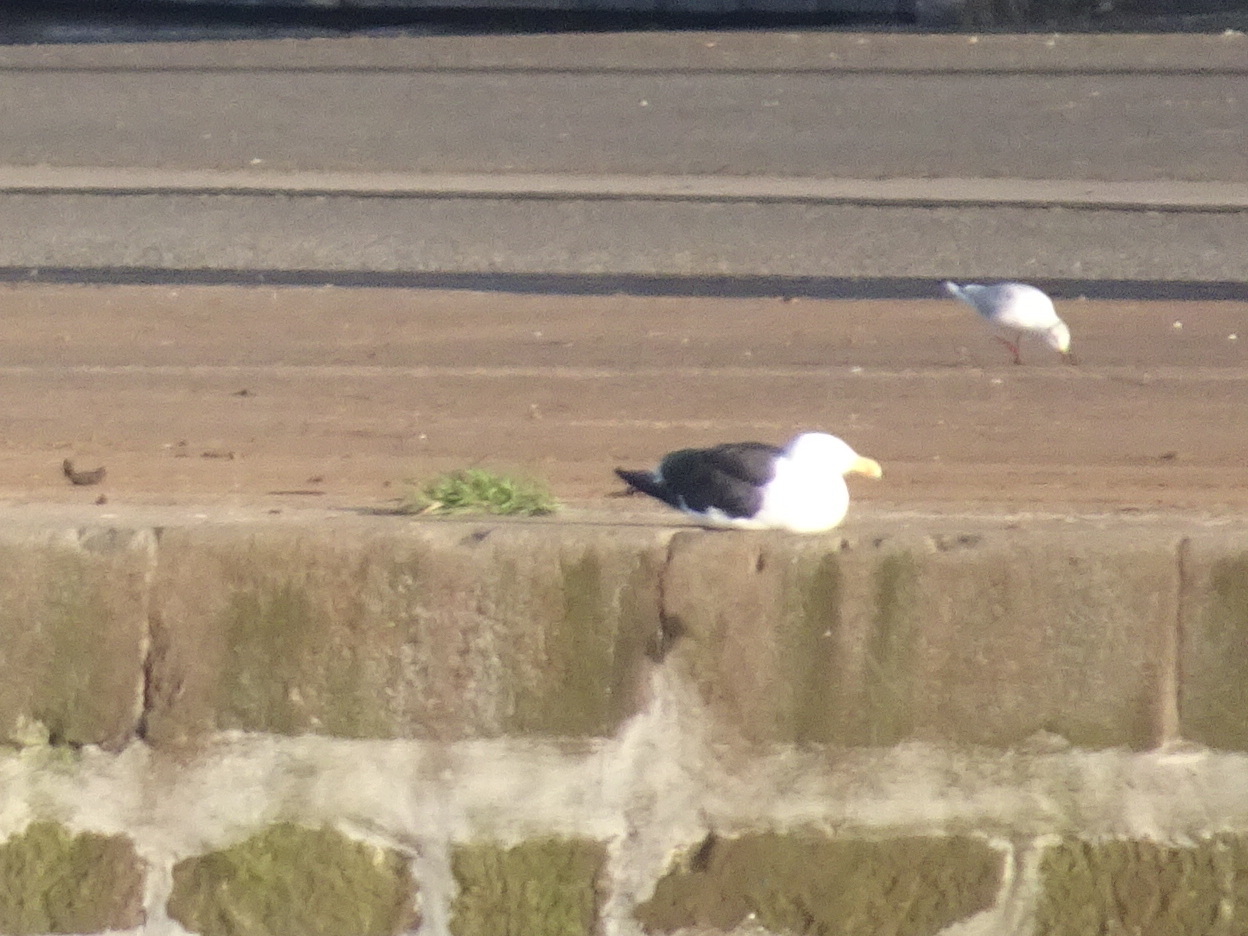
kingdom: Animalia
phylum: Chordata
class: Aves
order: Charadriiformes
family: Laridae
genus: Larus
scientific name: Larus marinus
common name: Great black-backed gull
